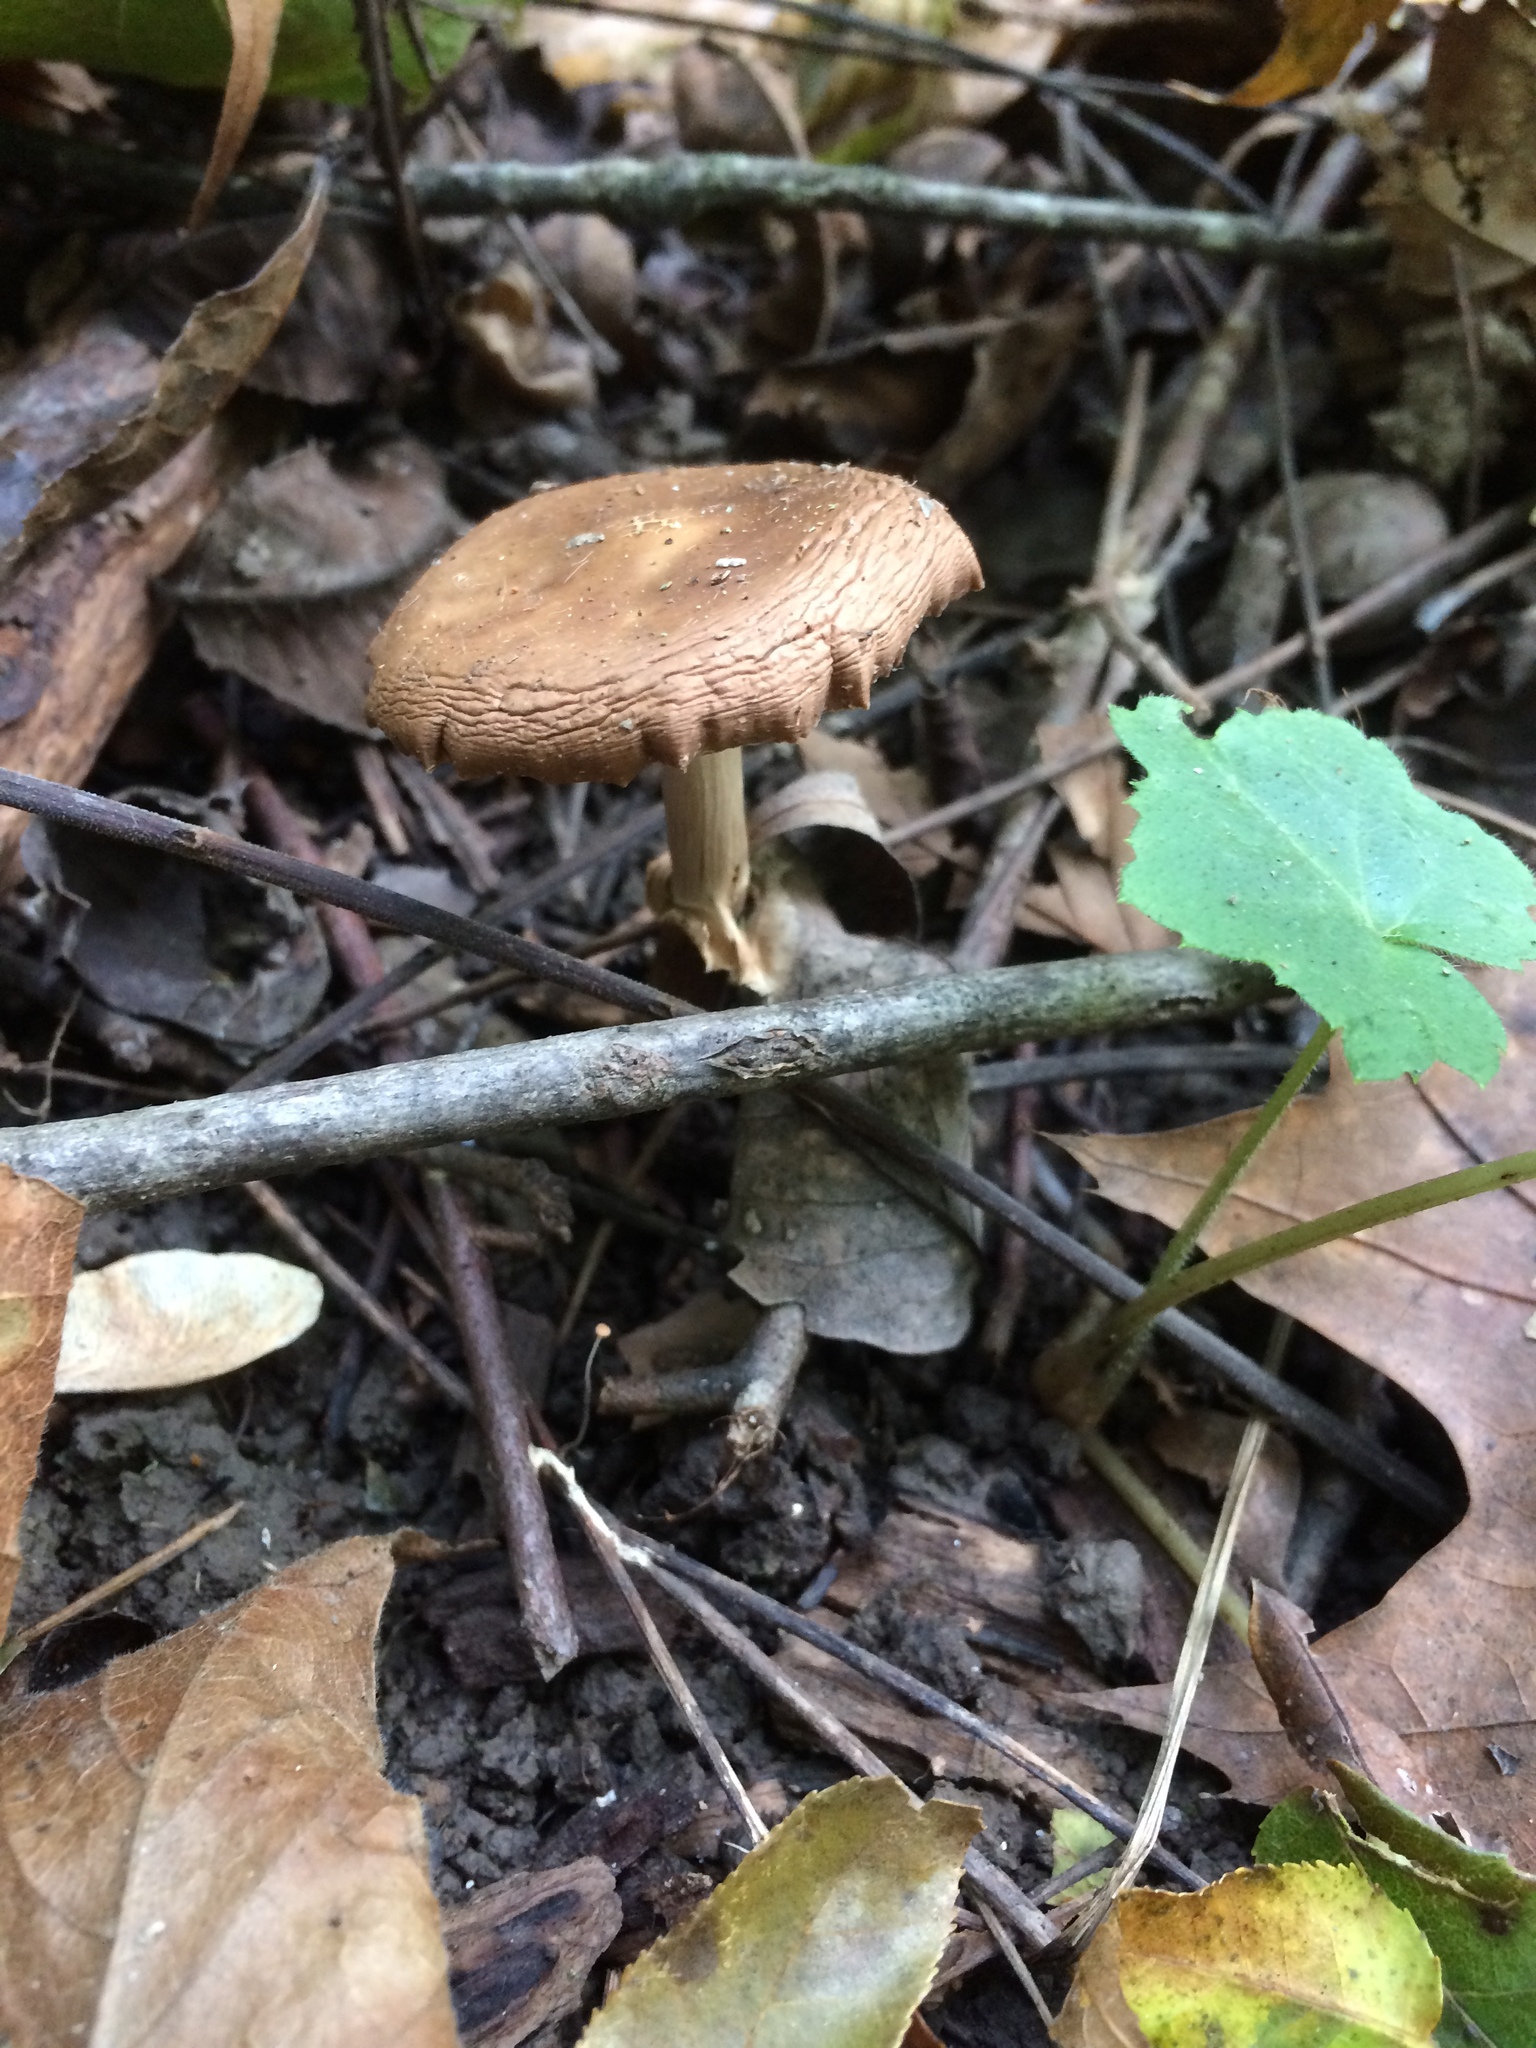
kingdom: Fungi
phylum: Basidiomycota
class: Agaricomycetes
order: Agaricales
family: Tubariaceae
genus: Cyclocybe
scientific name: Cyclocybe erebia
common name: Dark fieldcap
